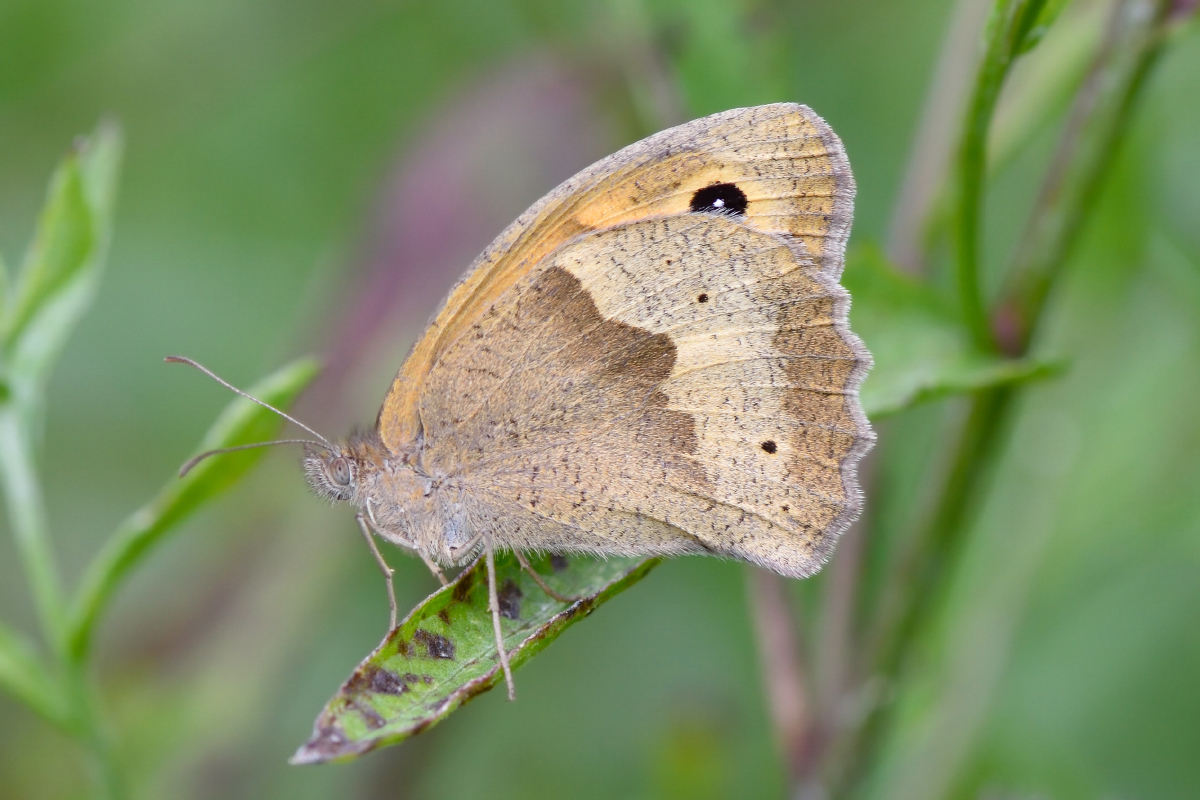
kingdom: Animalia
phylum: Arthropoda
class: Insecta
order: Lepidoptera
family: Nymphalidae
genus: Maniola
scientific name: Maniola jurtina
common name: Meadow brown
